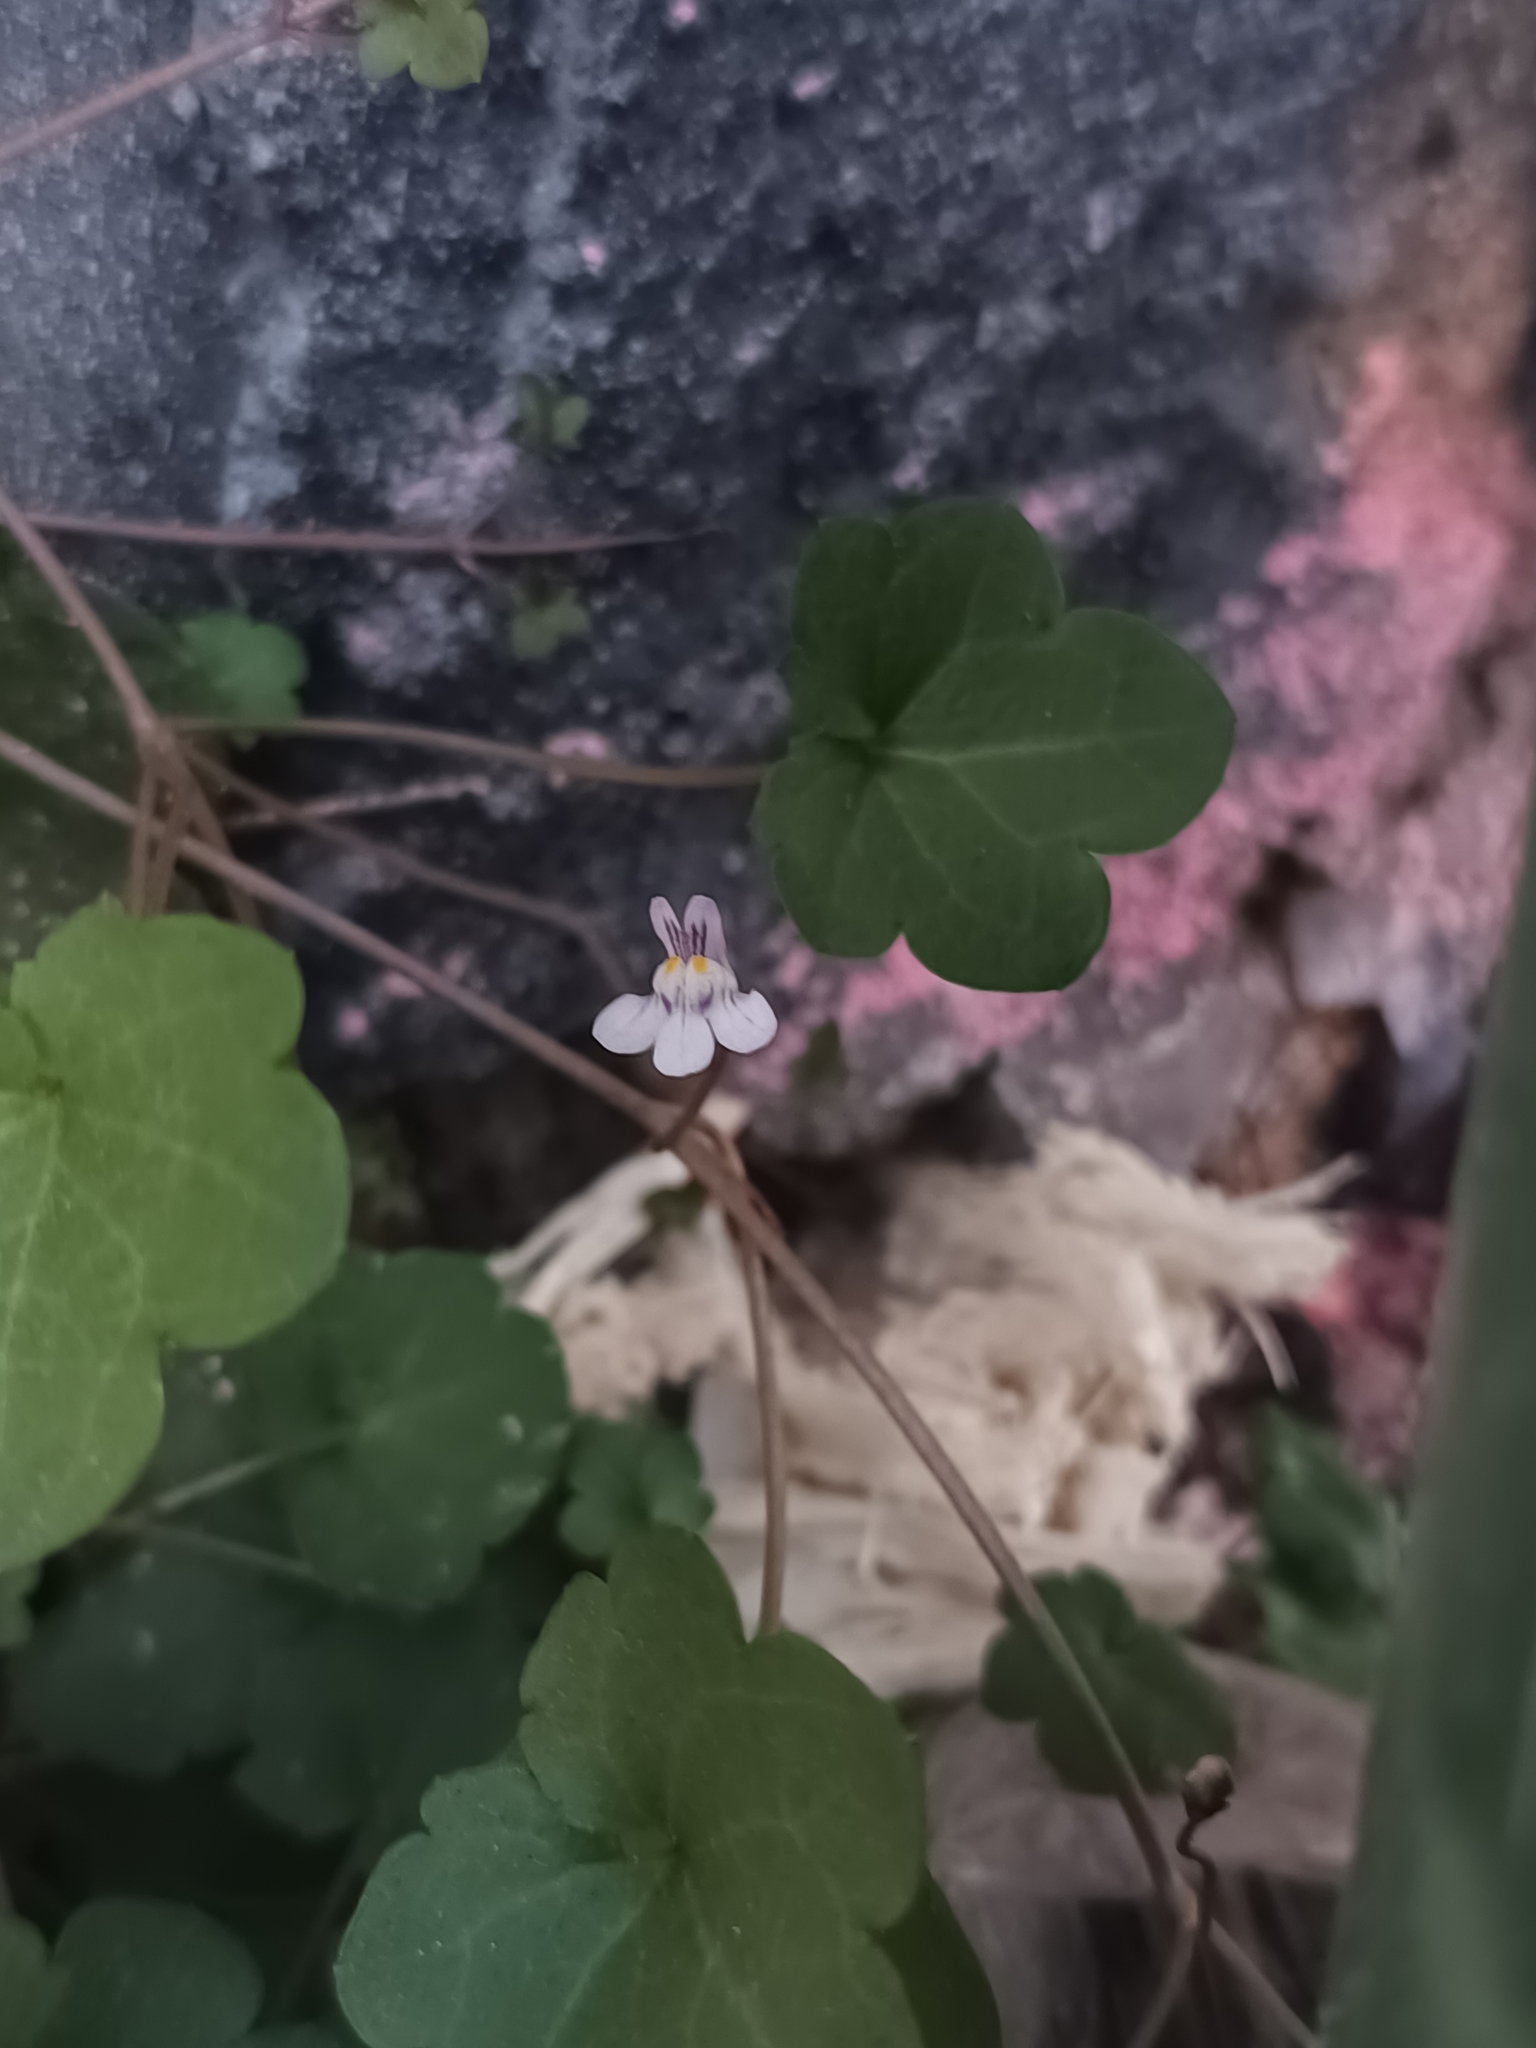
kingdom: Plantae
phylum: Tracheophyta
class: Magnoliopsida
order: Lamiales
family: Plantaginaceae
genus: Cymbalaria
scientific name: Cymbalaria muralis
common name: Ivy-leaved toadflax
